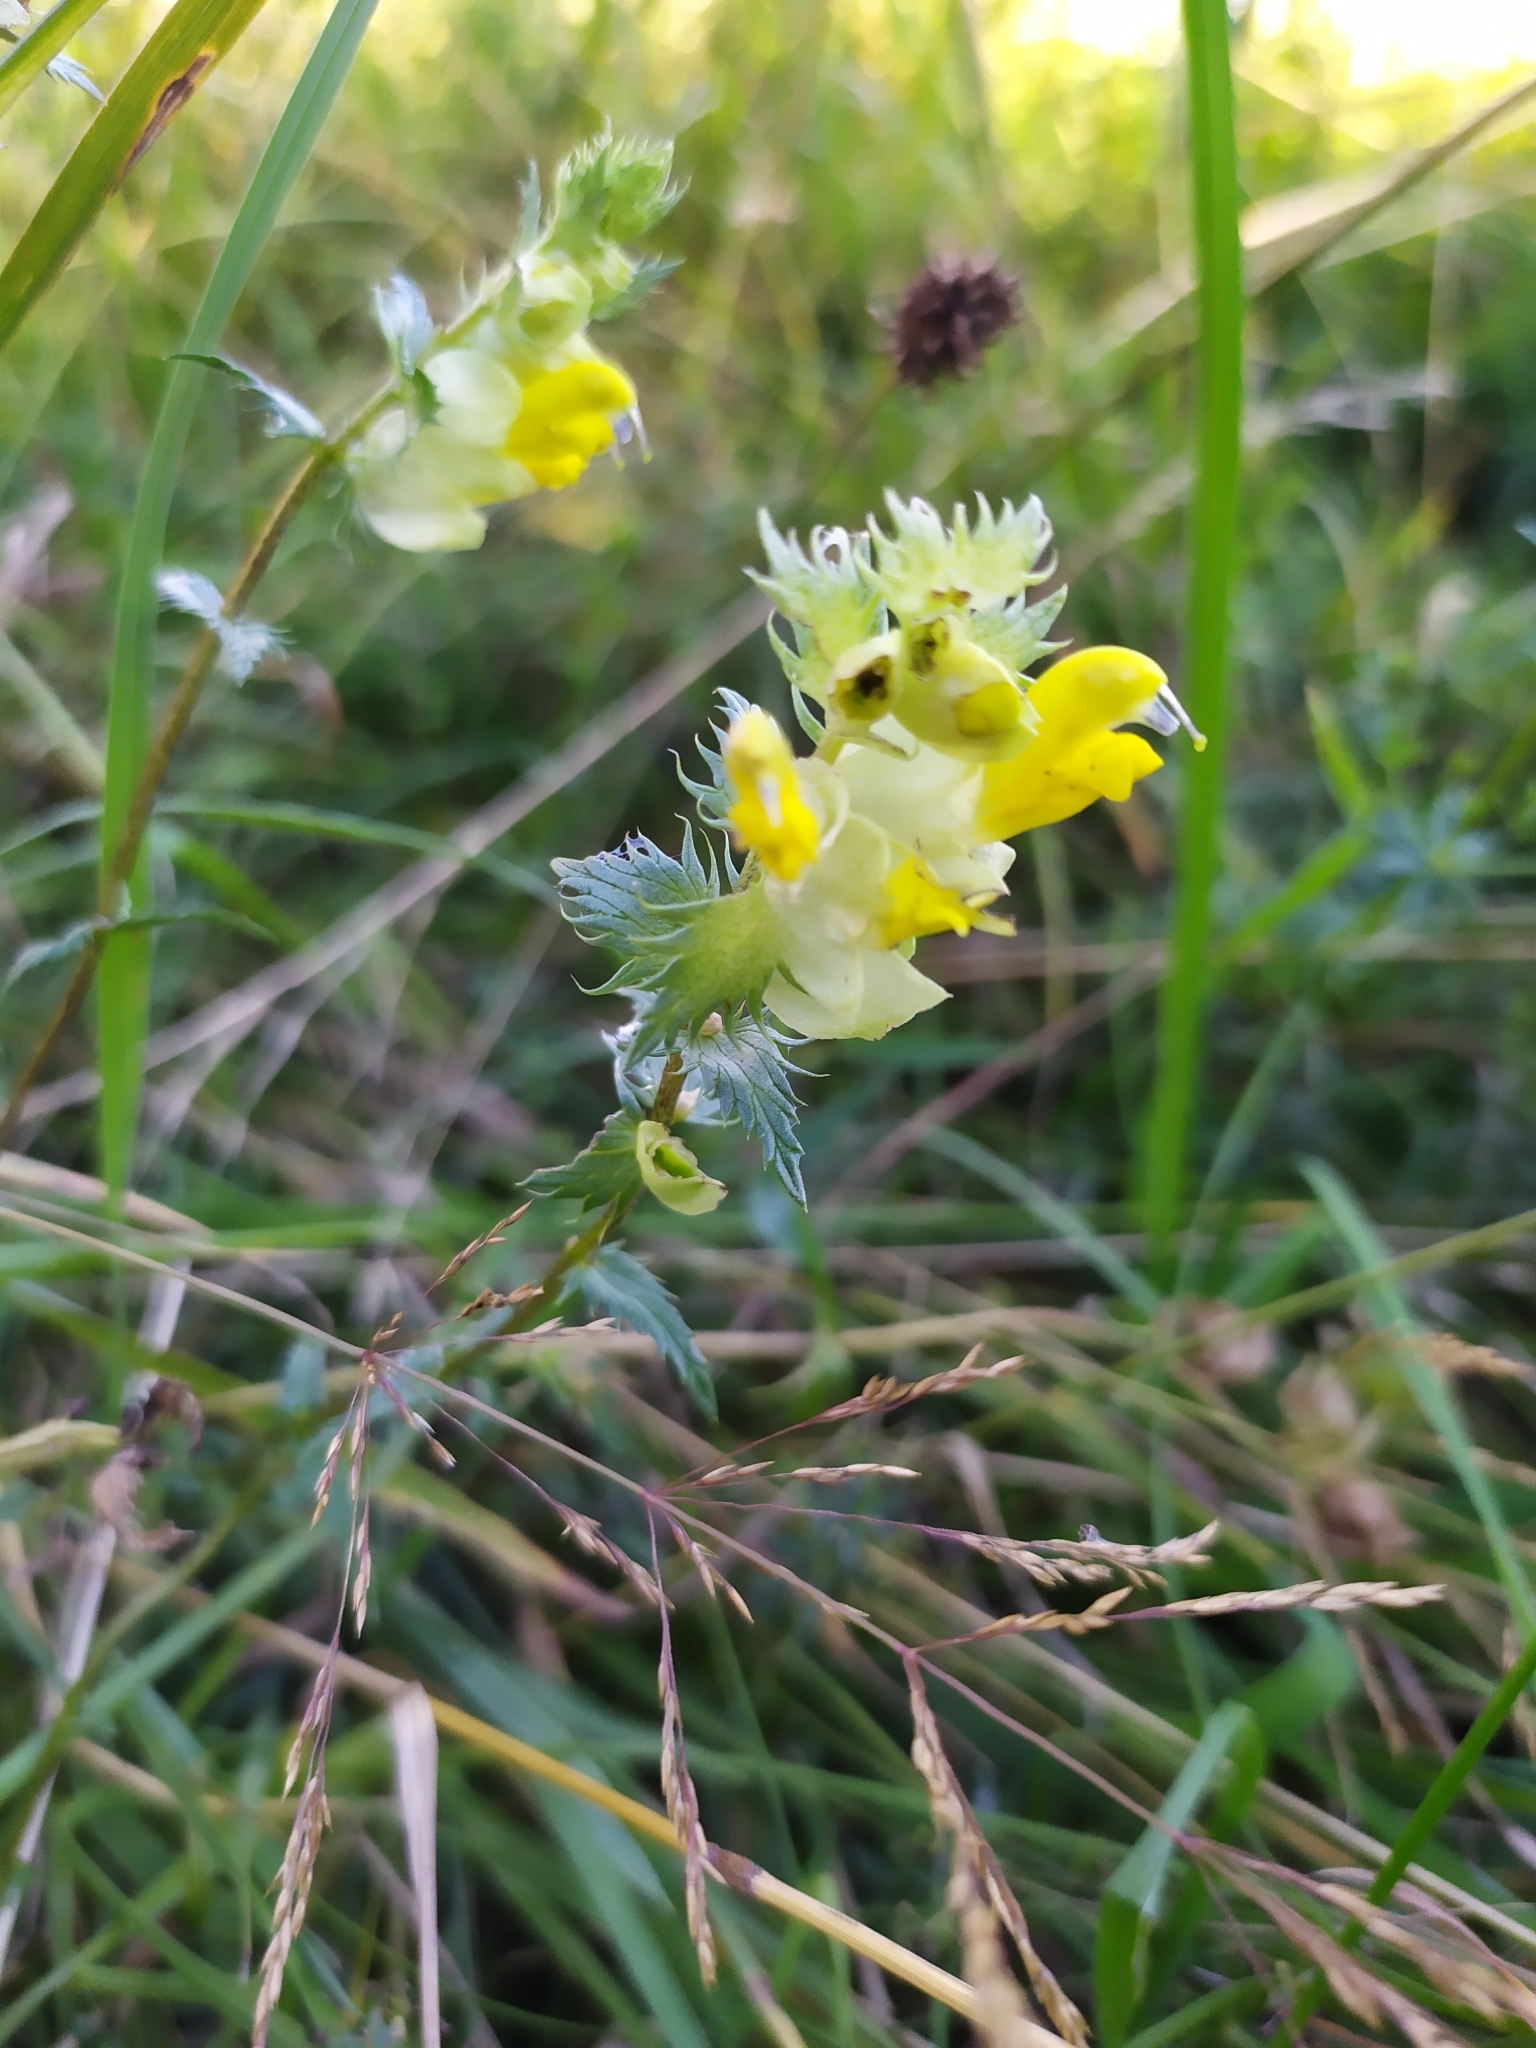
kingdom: Plantae
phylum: Tracheophyta
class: Magnoliopsida
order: Lamiales
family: Orobanchaceae
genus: Rhinanthus
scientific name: Rhinanthus glacialis
